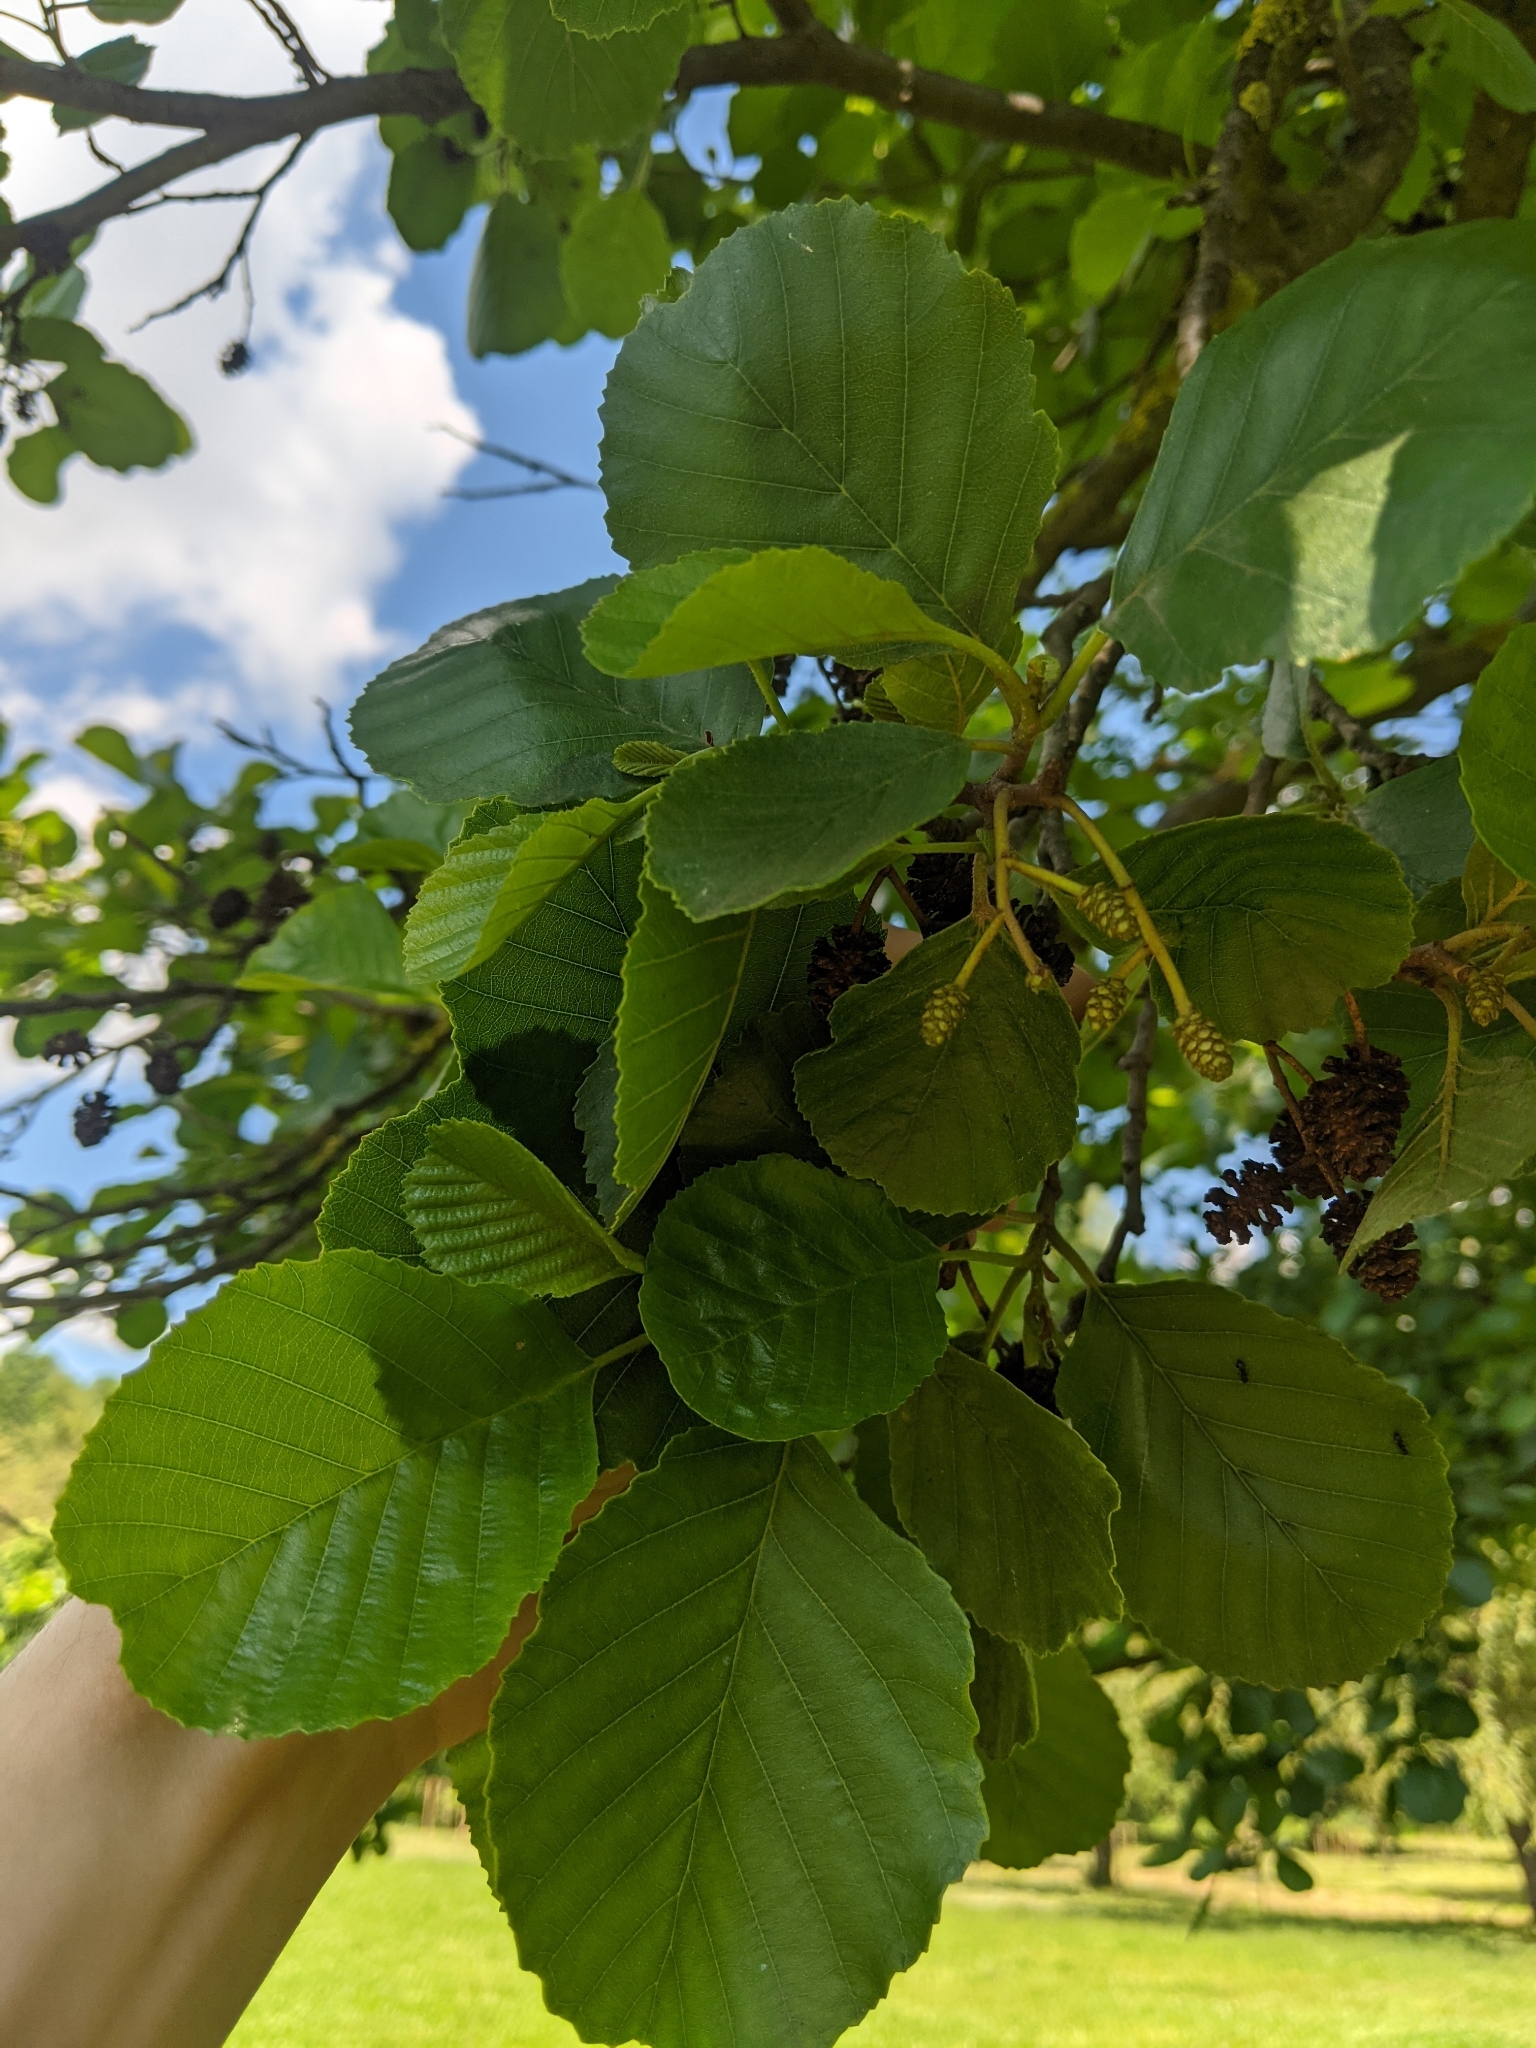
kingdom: Plantae
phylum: Tracheophyta
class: Magnoliopsida
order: Fagales
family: Betulaceae
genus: Alnus
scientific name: Alnus glutinosa
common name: Black alder
